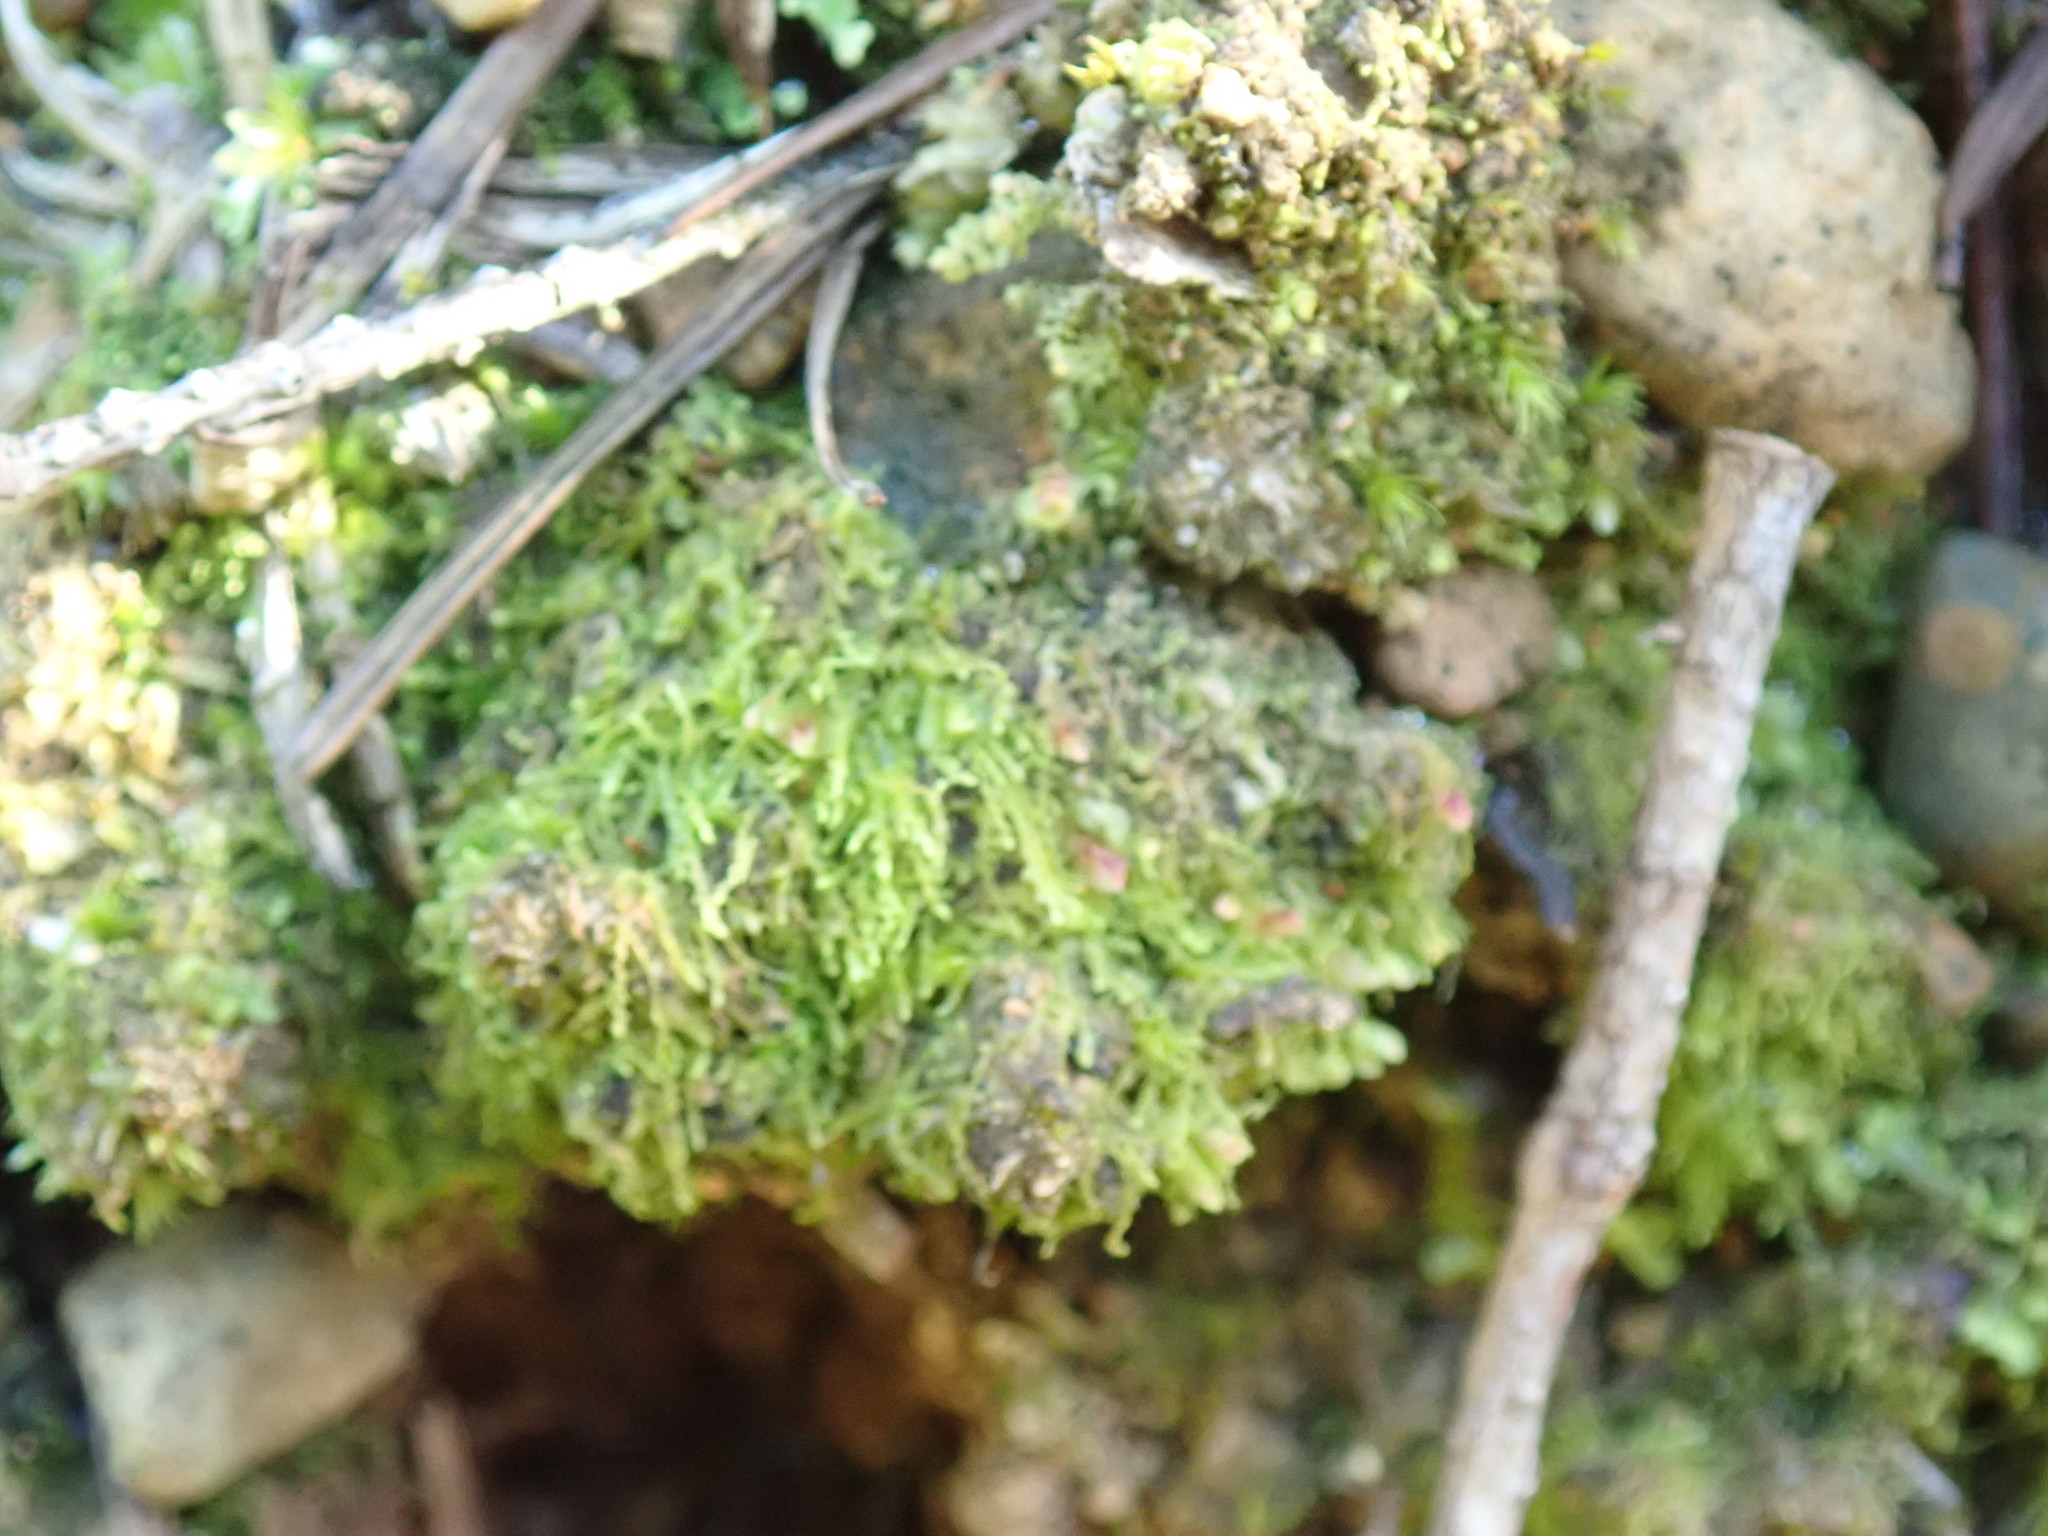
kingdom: Plantae
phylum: Marchantiophyta
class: Jungermanniopsida
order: Jungermanniales
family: Solenostomataceae
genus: Solenostoma
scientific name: Solenostoma rubrum
